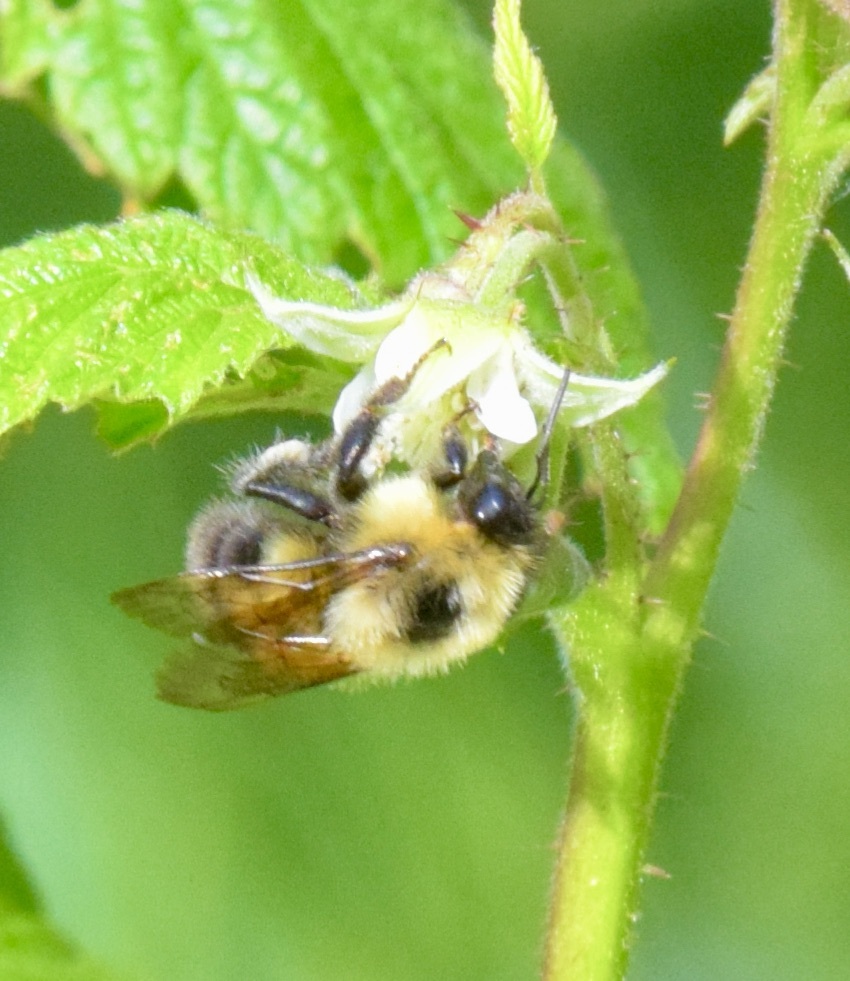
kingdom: Animalia
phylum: Arthropoda
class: Insecta
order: Hymenoptera
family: Apidae
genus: Bombus
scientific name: Bombus bimaculatus
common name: Two-spotted bumble bee
